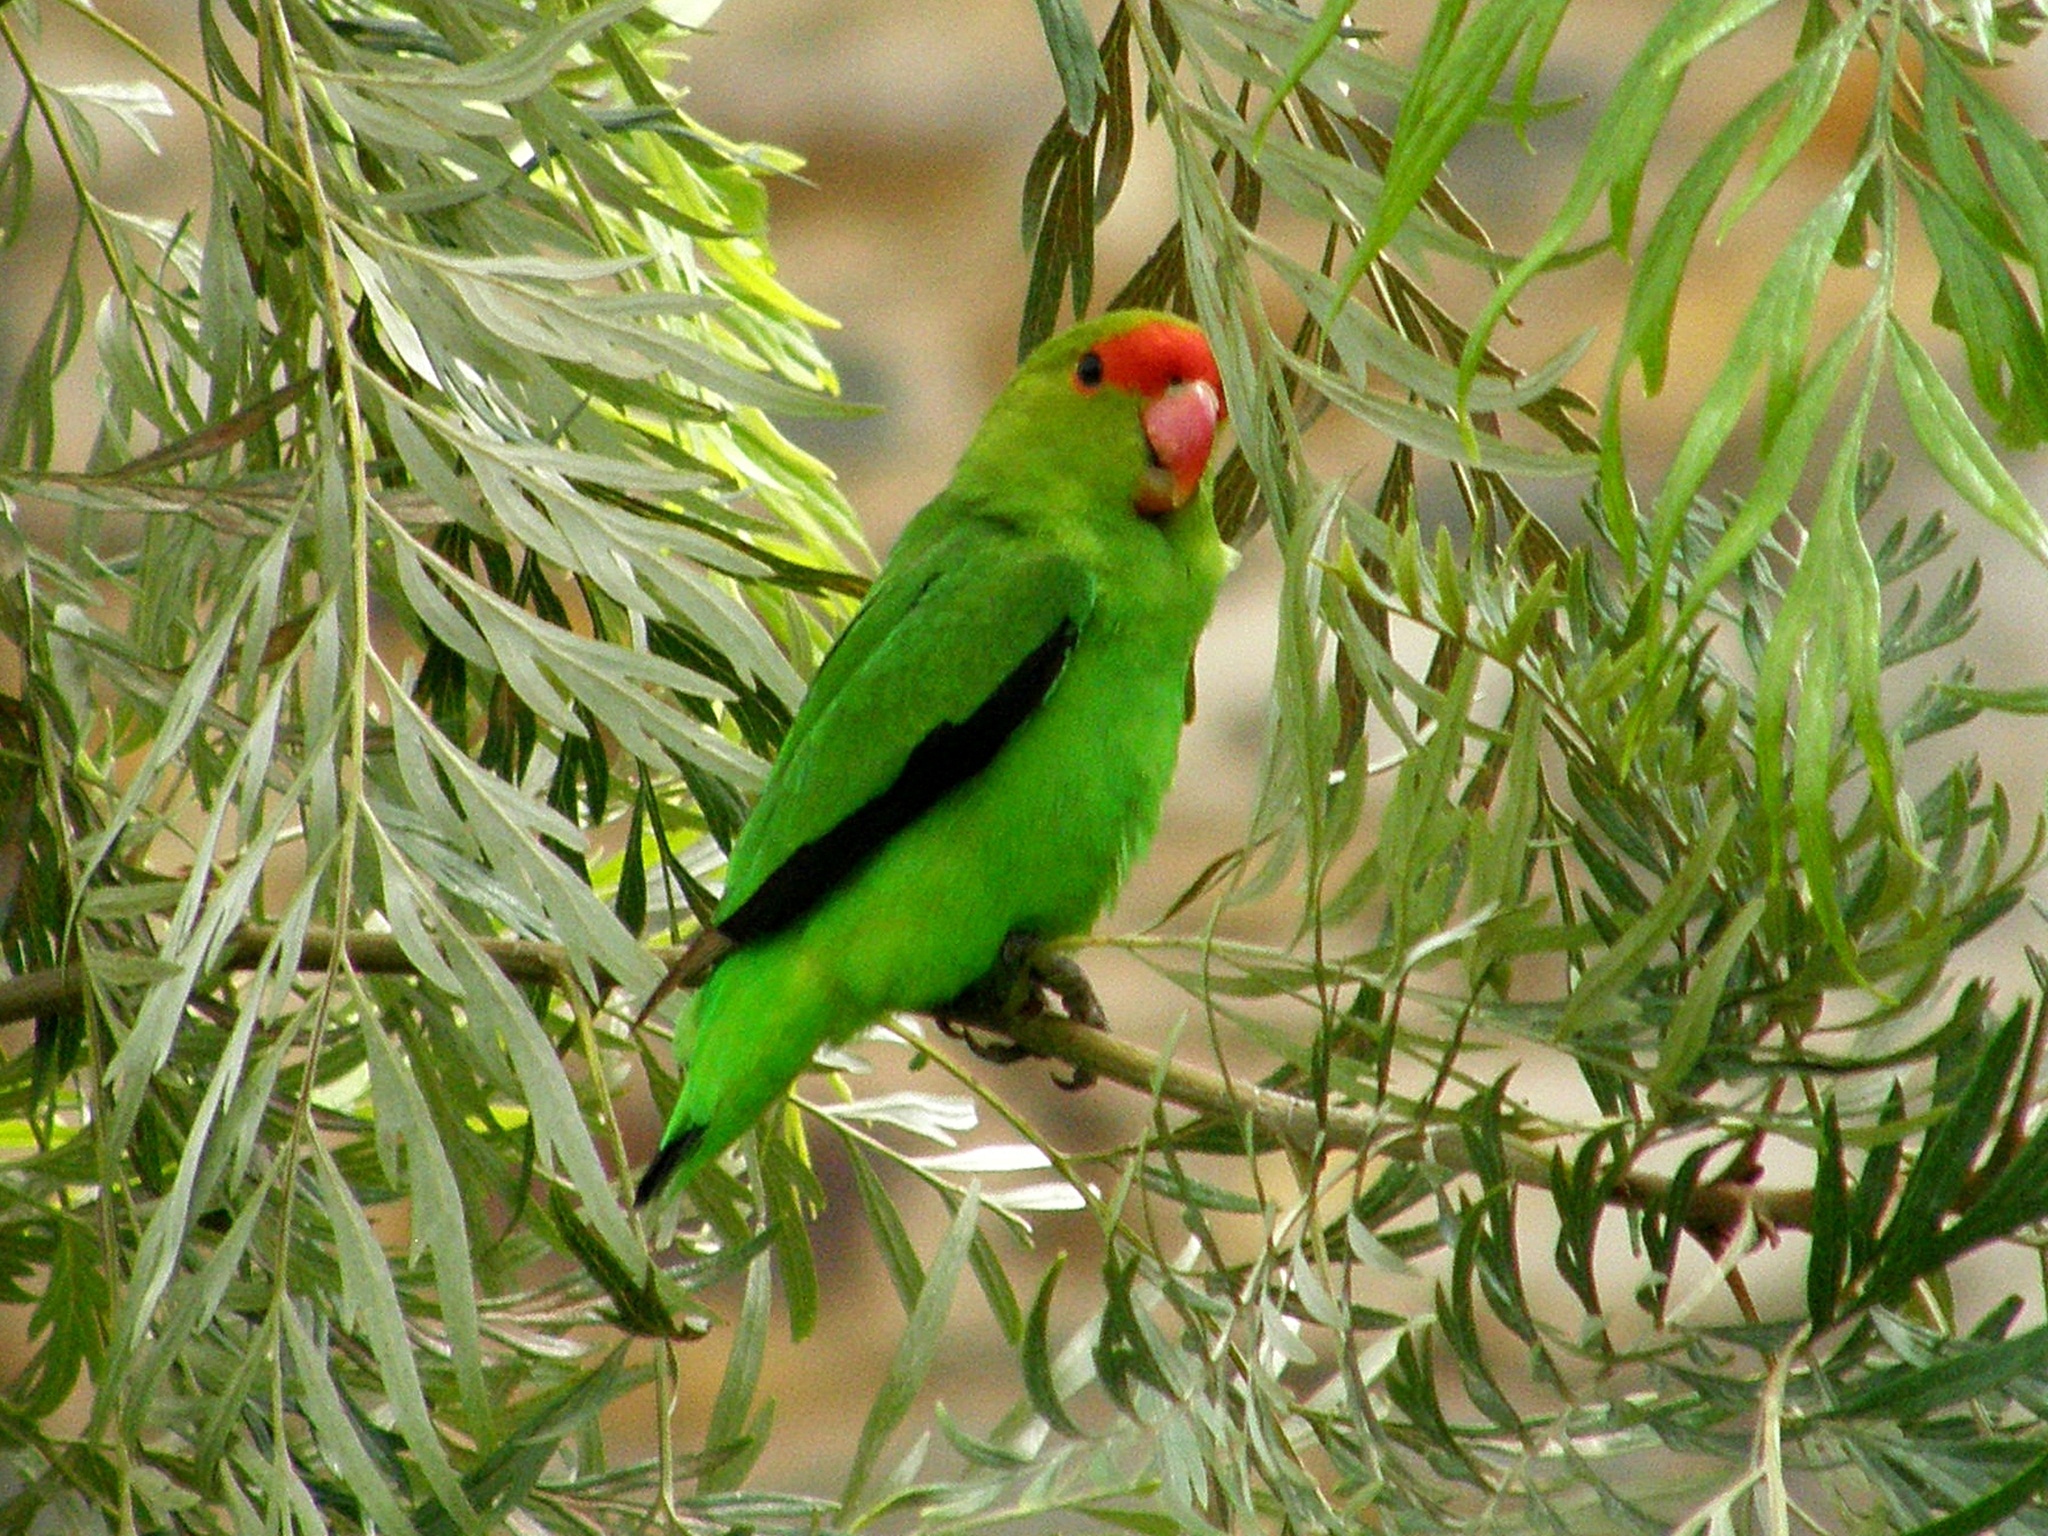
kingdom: Animalia
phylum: Chordata
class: Aves
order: Psittaciformes
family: Psittacidae
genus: Agapornis
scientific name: Agapornis taranta
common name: Black-winged lovebird
